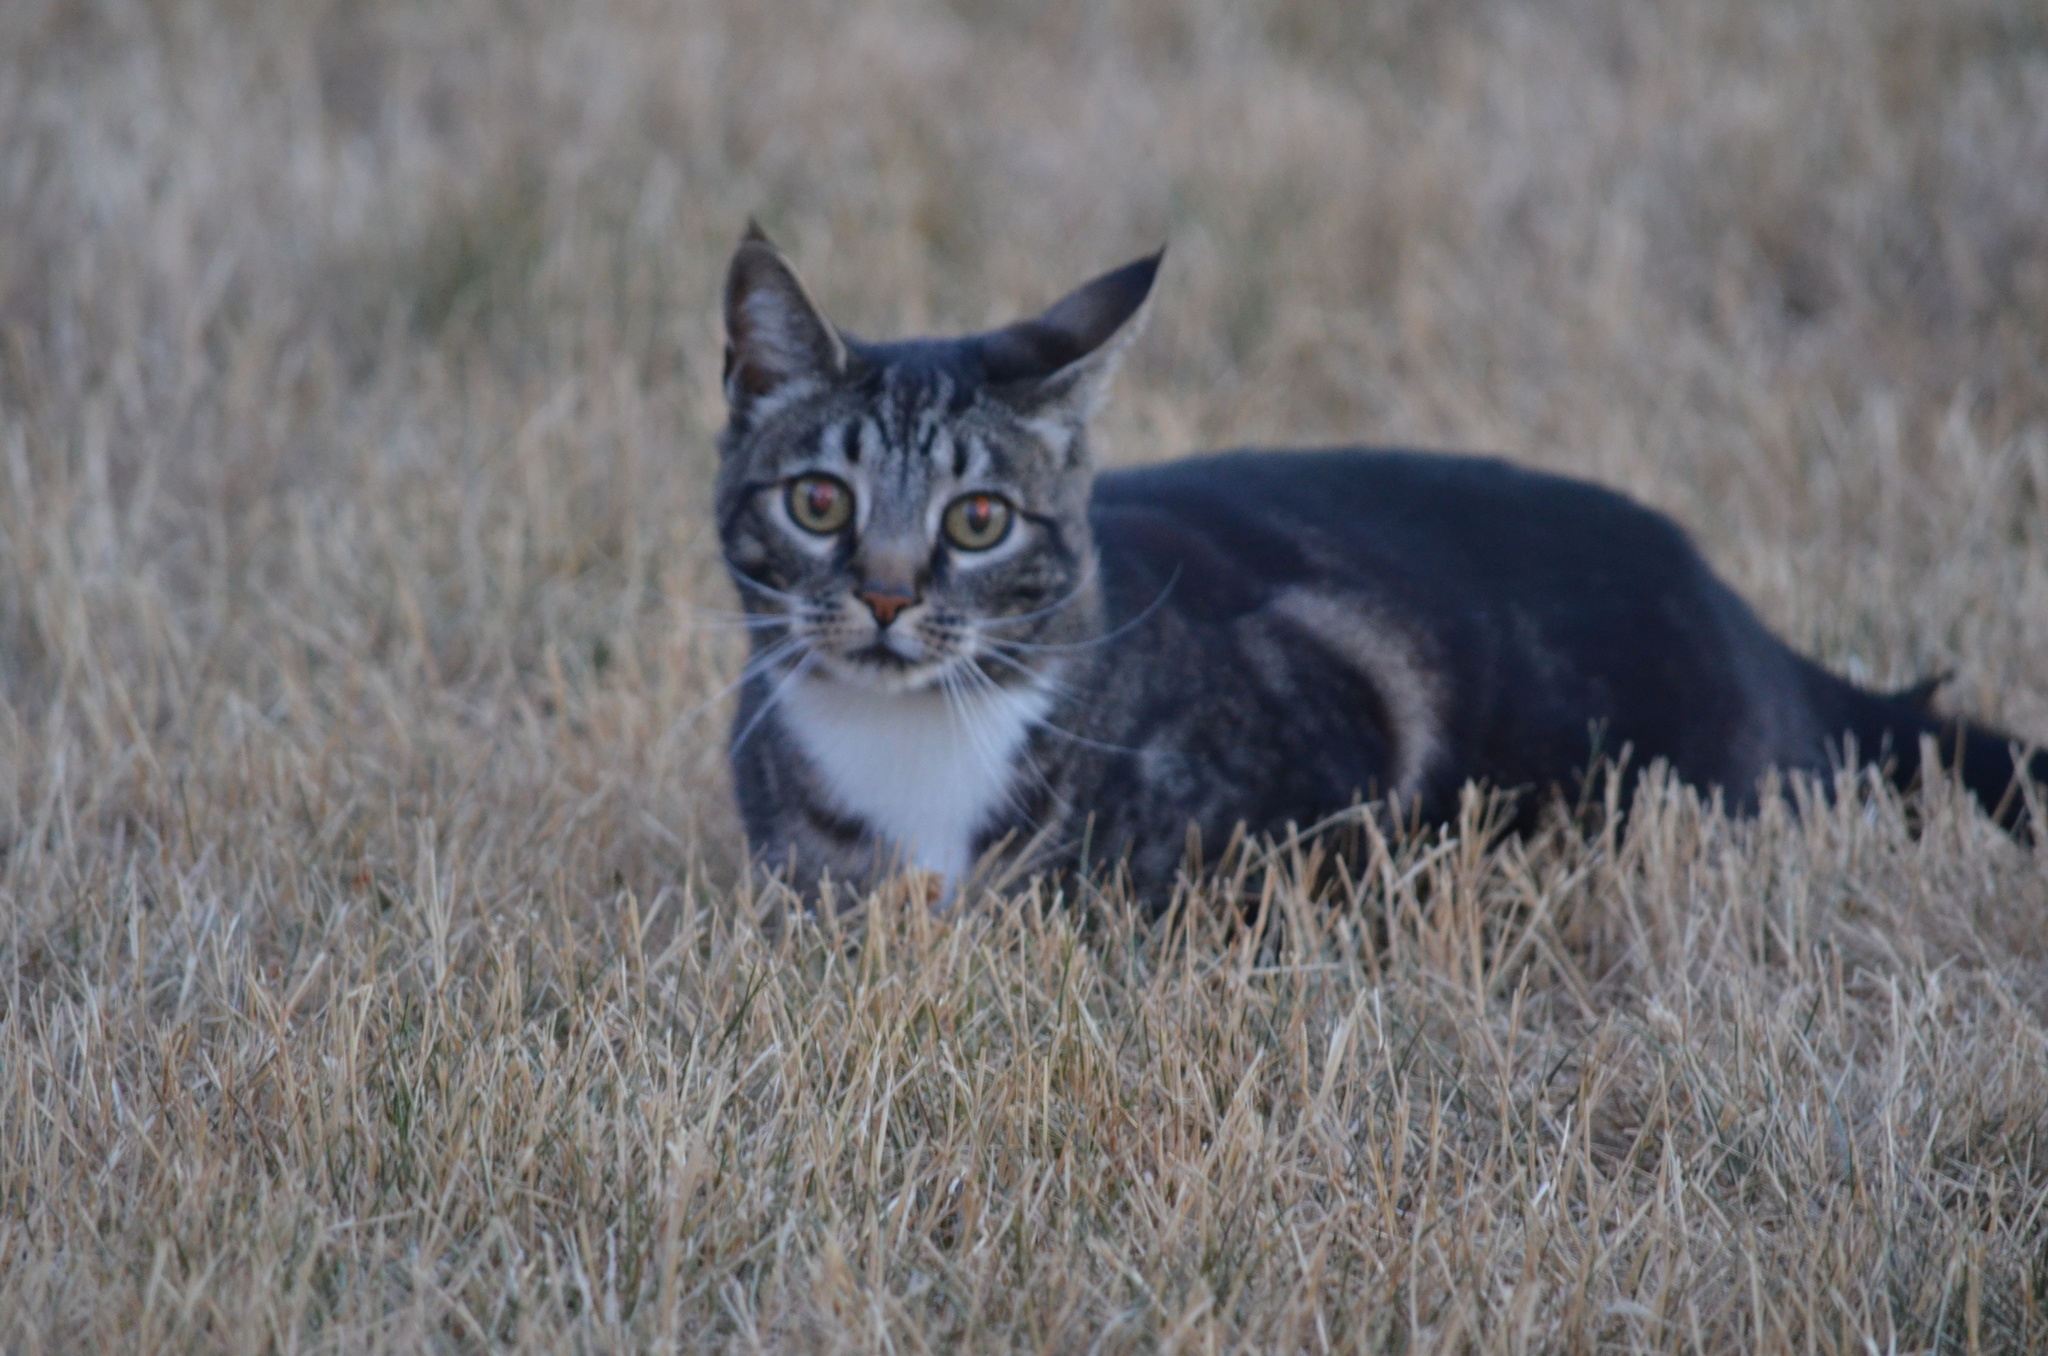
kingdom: Animalia
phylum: Chordata
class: Mammalia
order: Carnivora
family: Felidae
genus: Felis
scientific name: Felis catus
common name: Domestic cat
